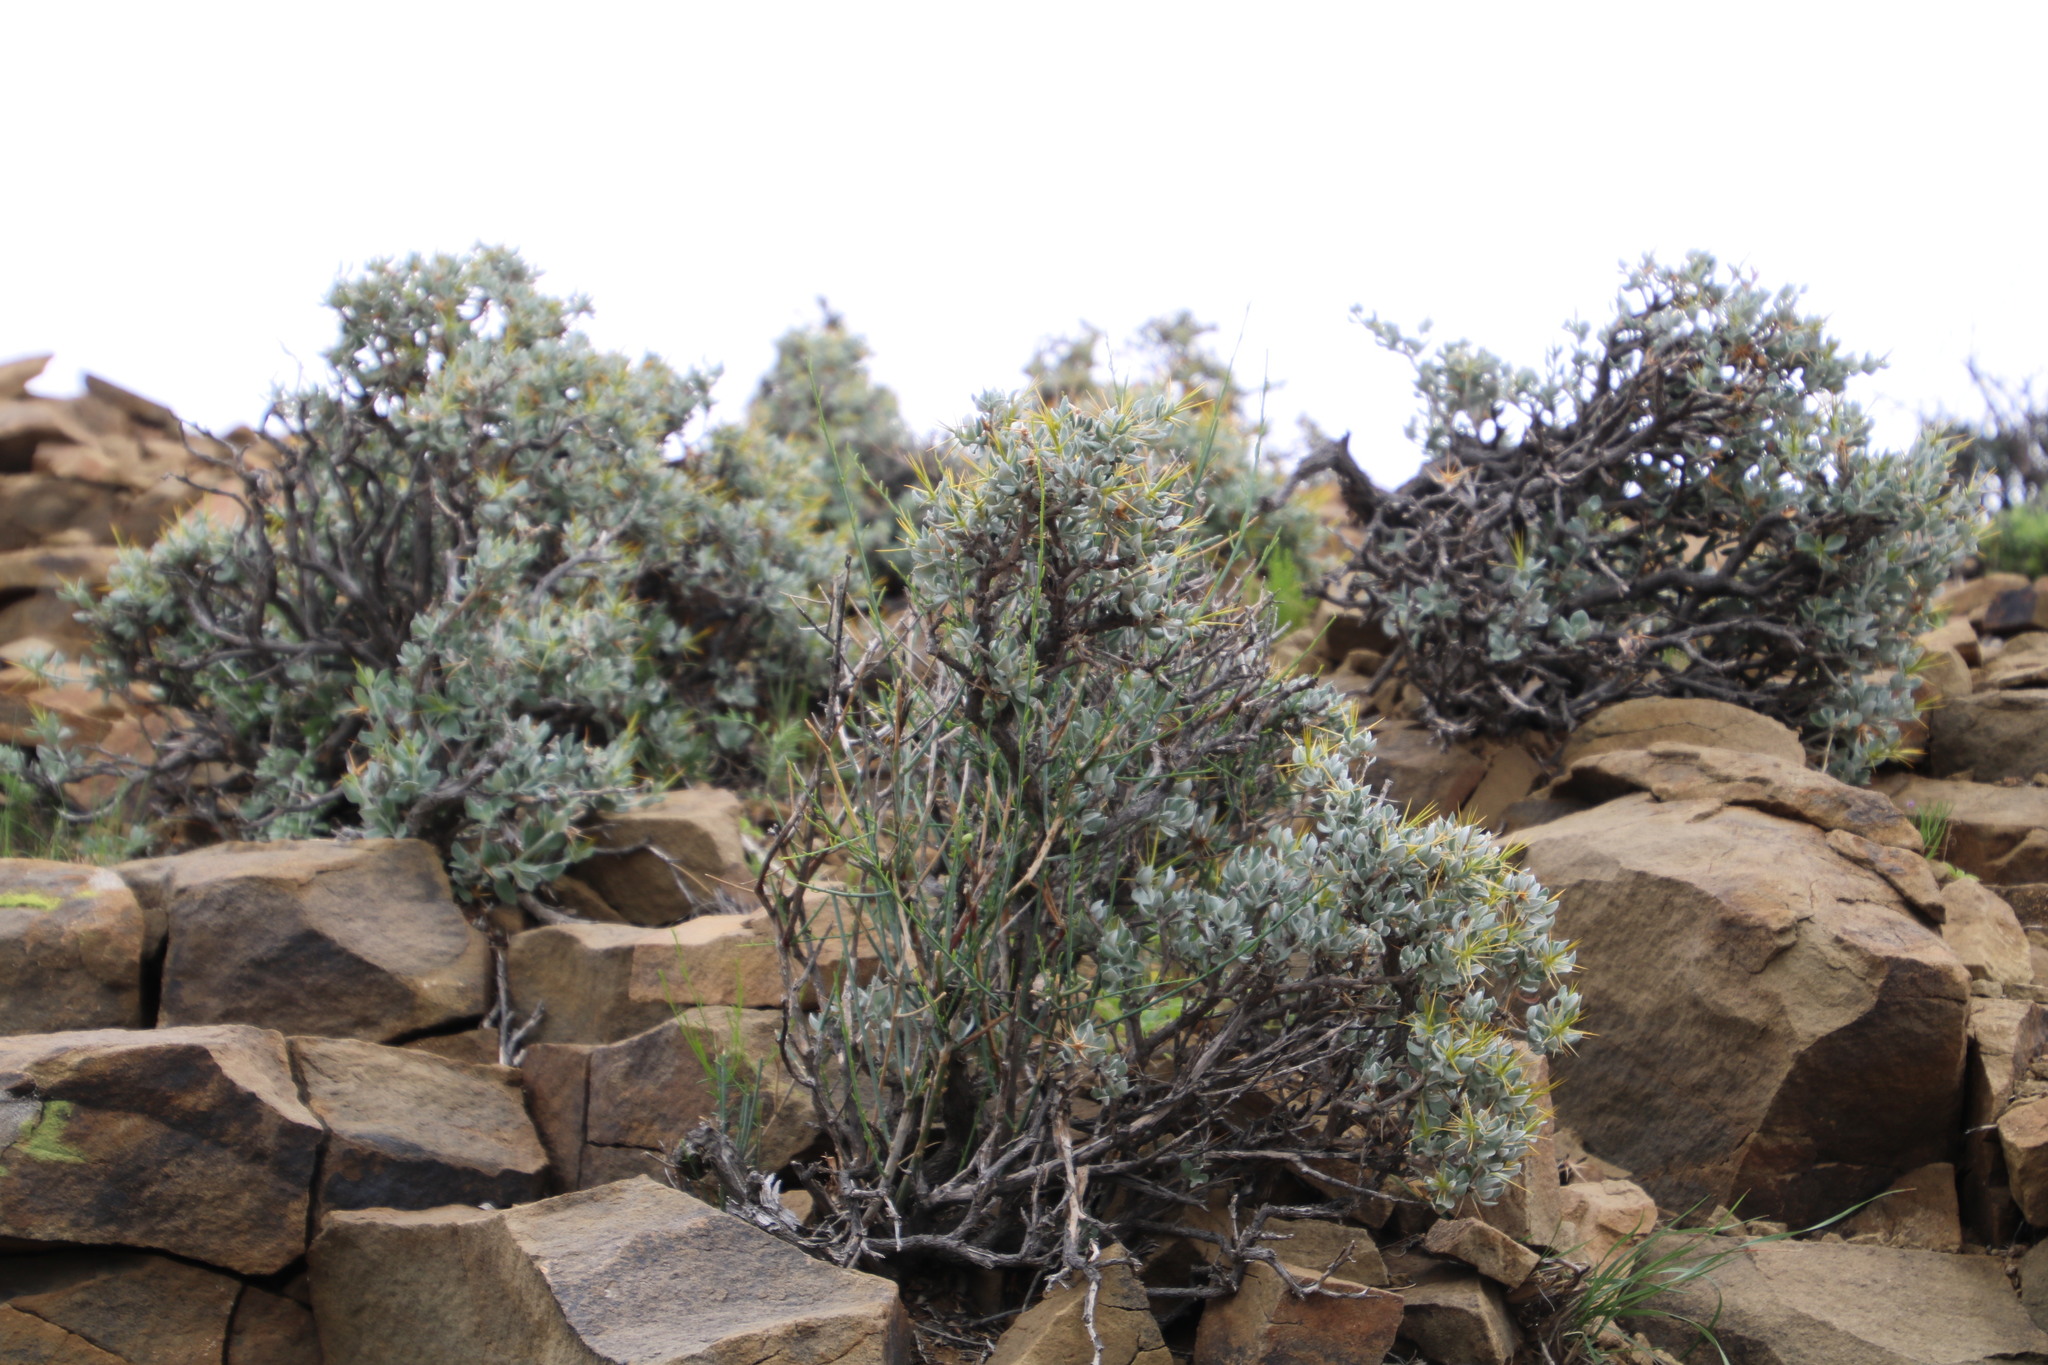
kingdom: Plantae
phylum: Tracheophyta
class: Magnoliopsida
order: Asterales
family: Asteraceae
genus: Macledium
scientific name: Macledium spinosum
